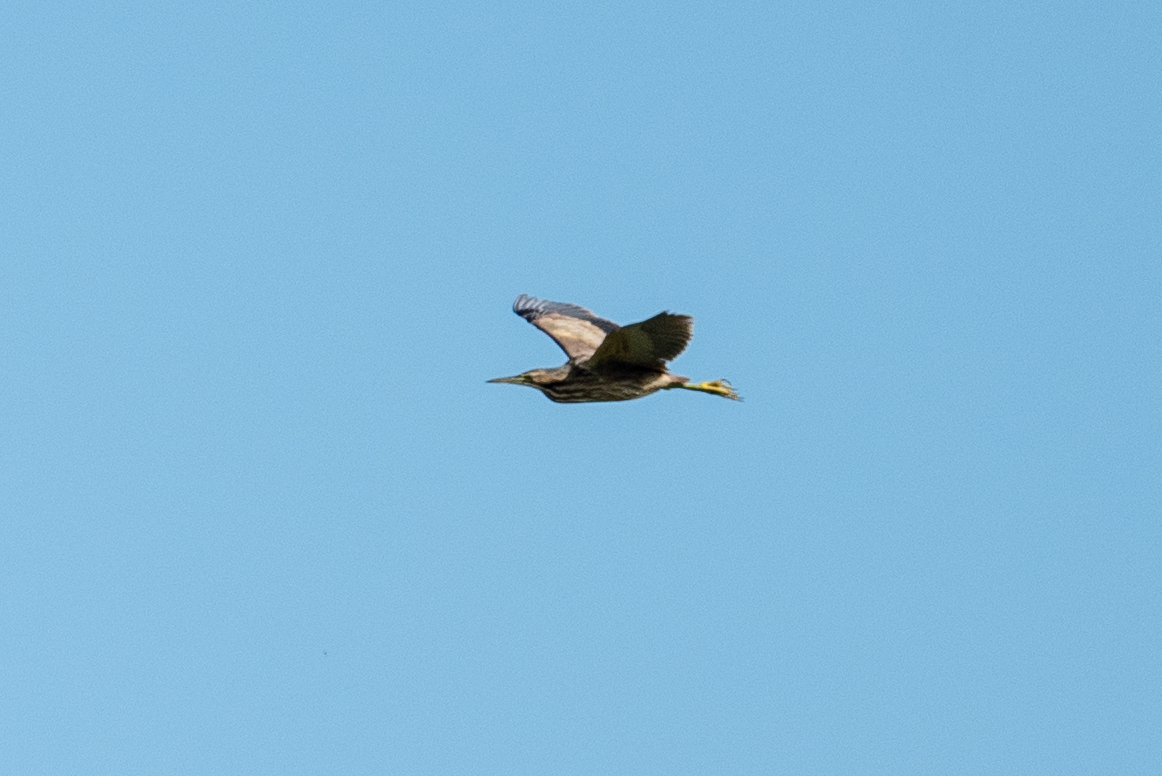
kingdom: Animalia
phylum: Chordata
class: Aves
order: Pelecaniformes
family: Ardeidae
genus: Botaurus
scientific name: Botaurus lentiginosus
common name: American bittern
